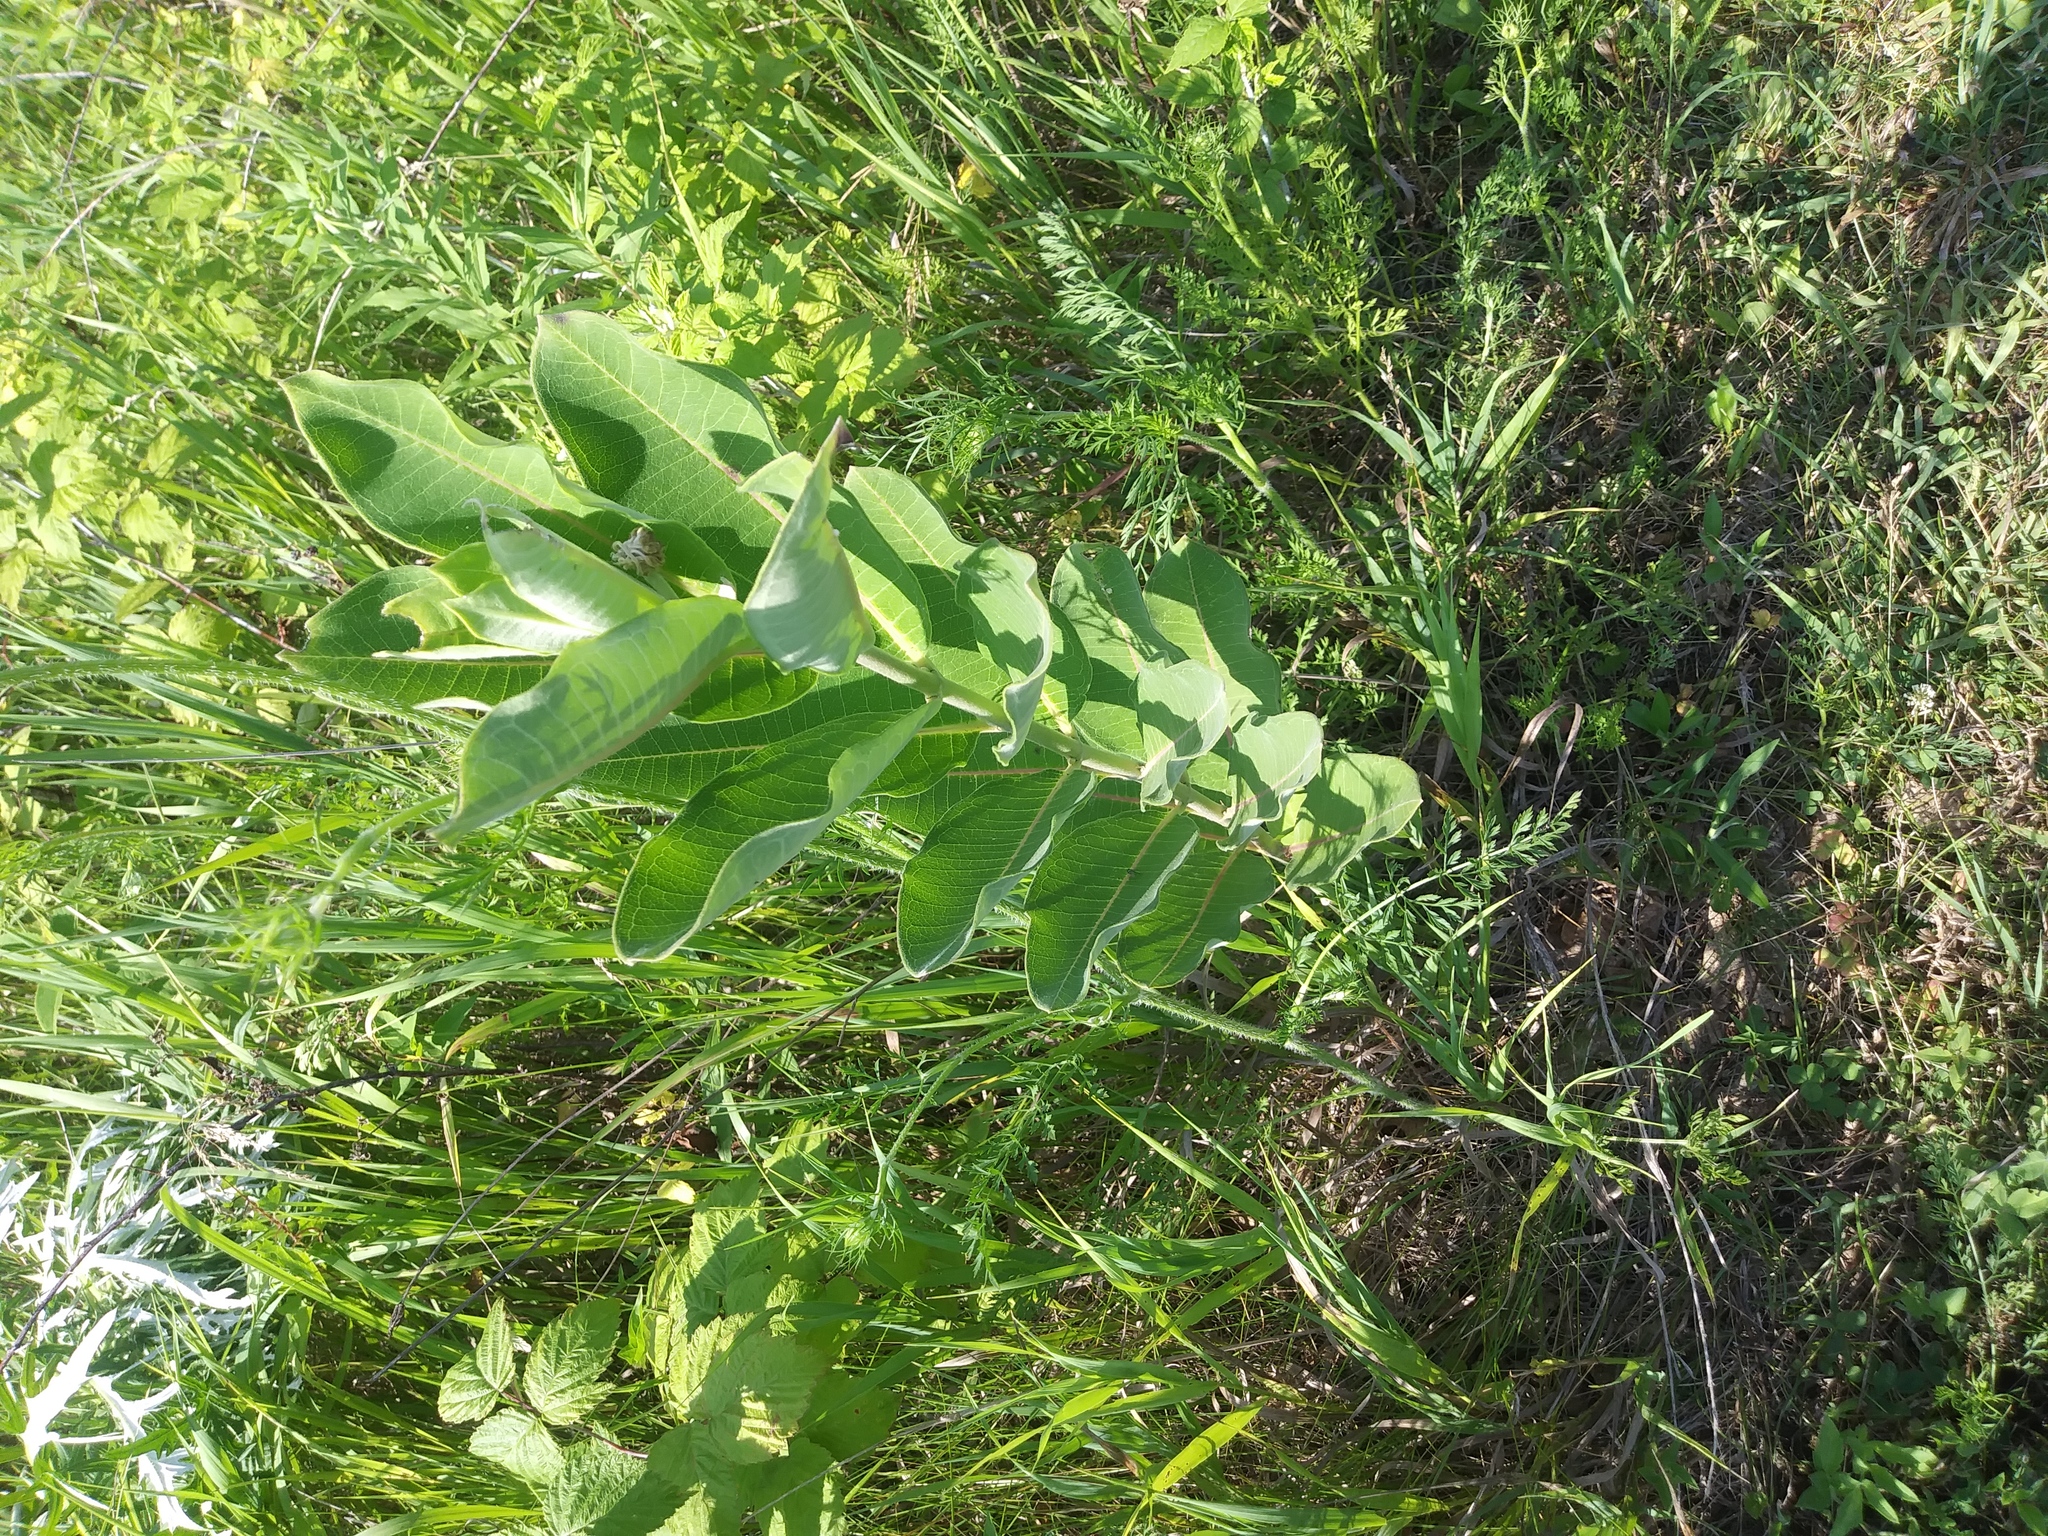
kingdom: Plantae
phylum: Tracheophyta
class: Magnoliopsida
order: Gentianales
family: Apocynaceae
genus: Asclepias
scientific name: Asclepias syriaca
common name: Common milkweed
